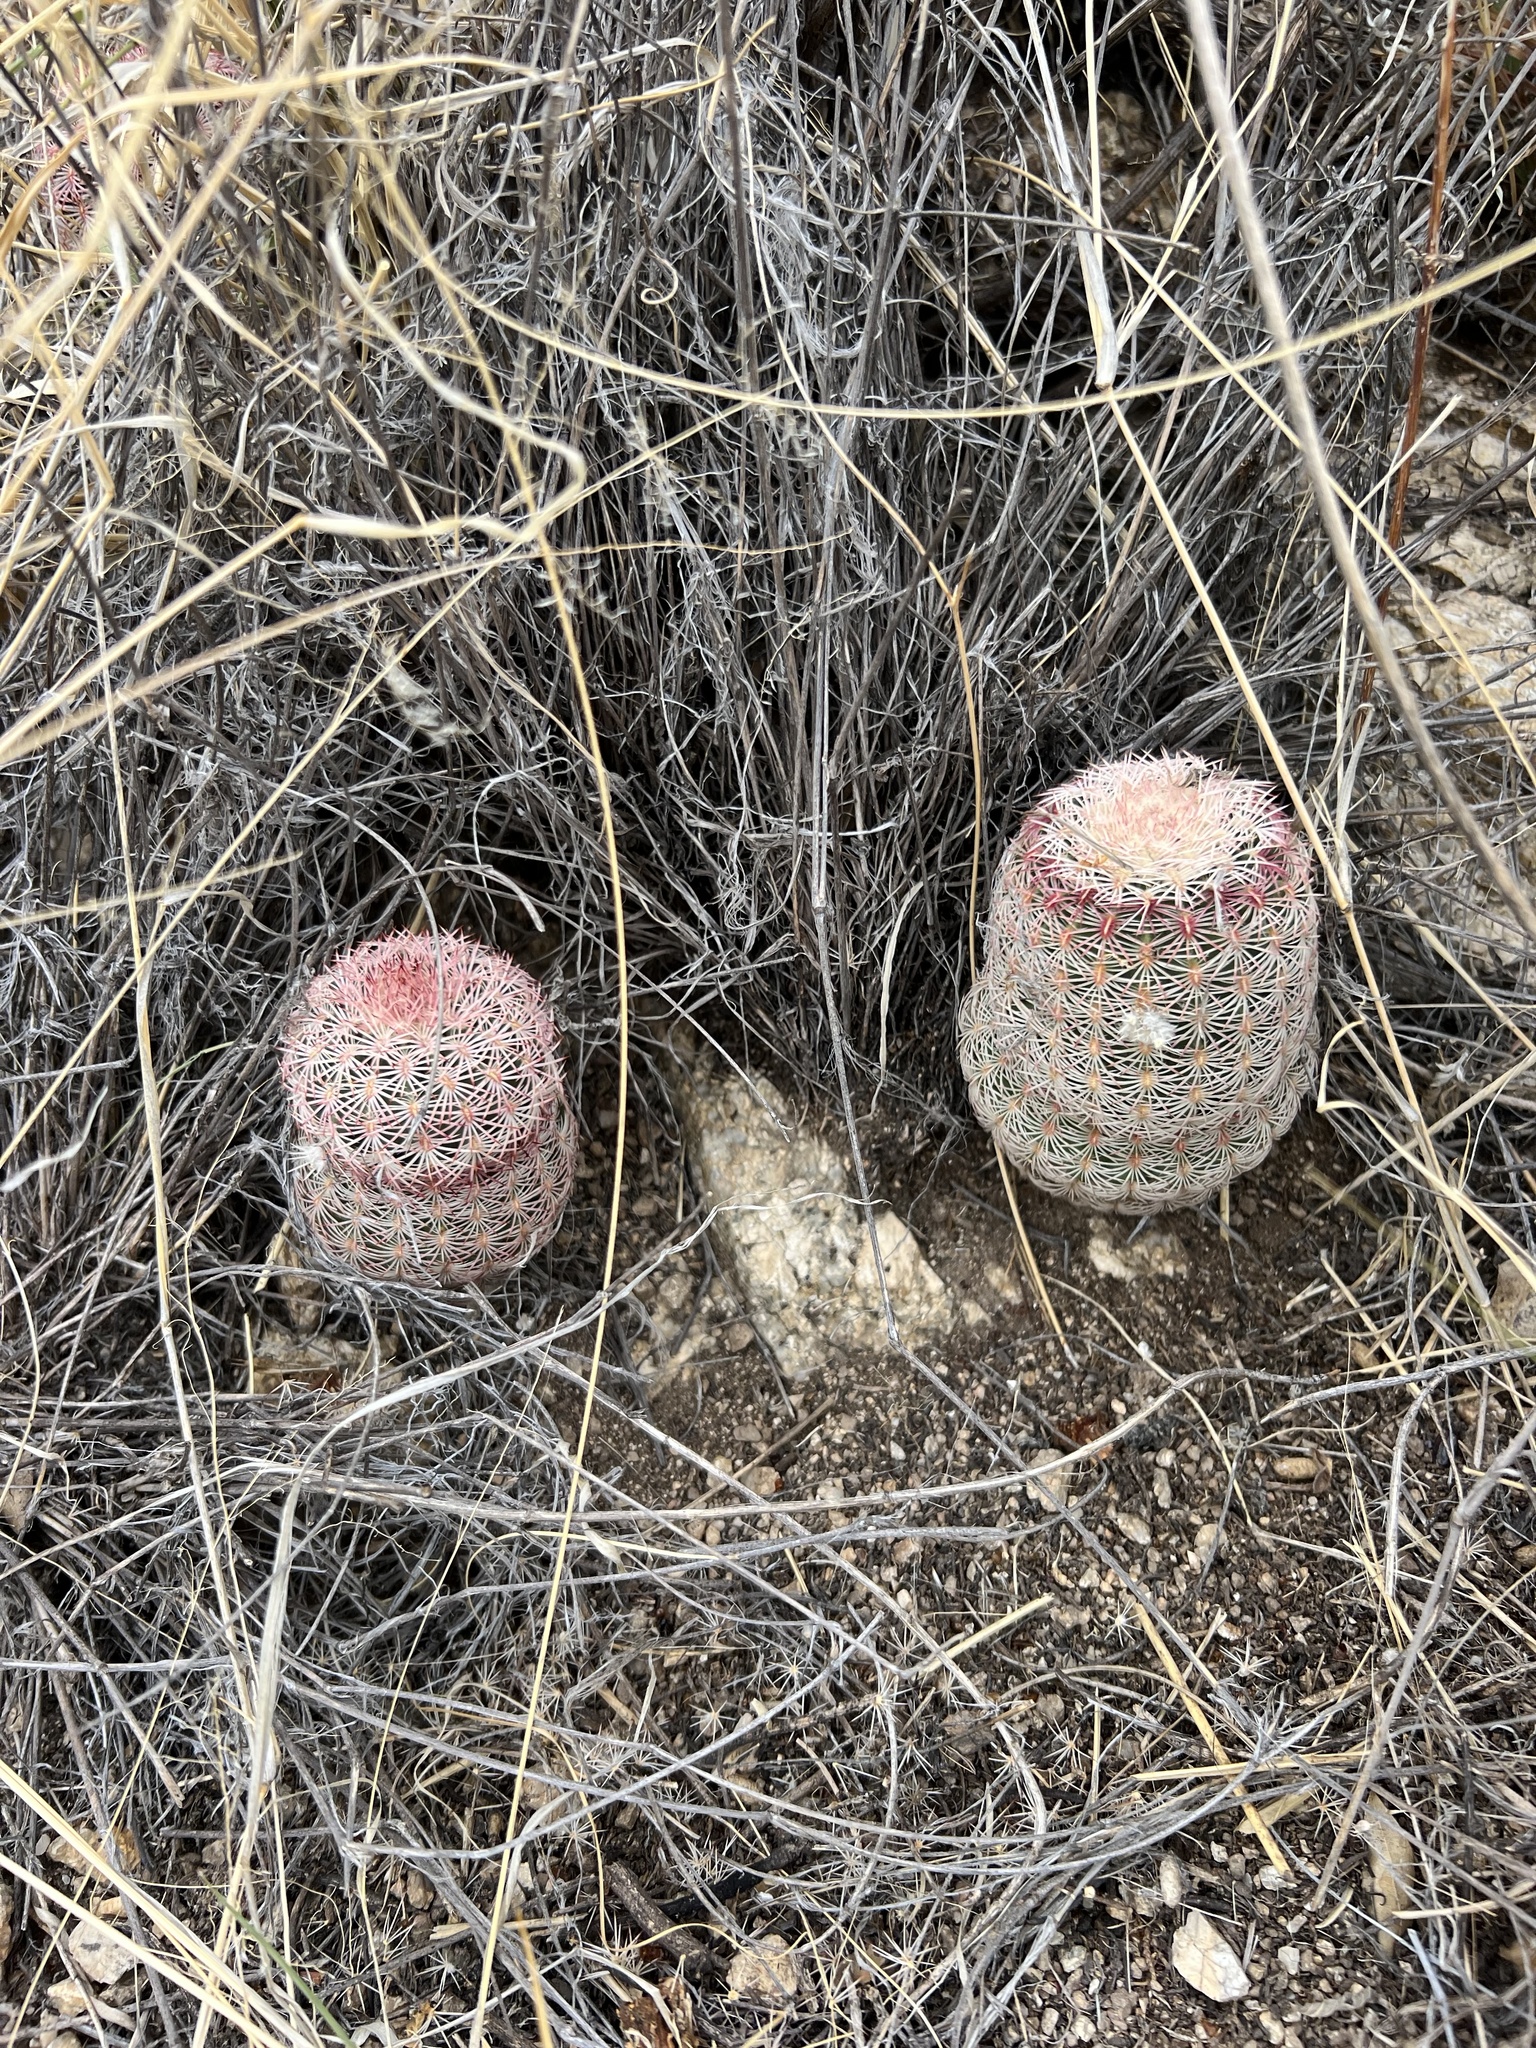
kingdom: Plantae
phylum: Tracheophyta
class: Magnoliopsida
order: Caryophyllales
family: Cactaceae
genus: Echinocereus
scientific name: Echinocereus rigidissimus
